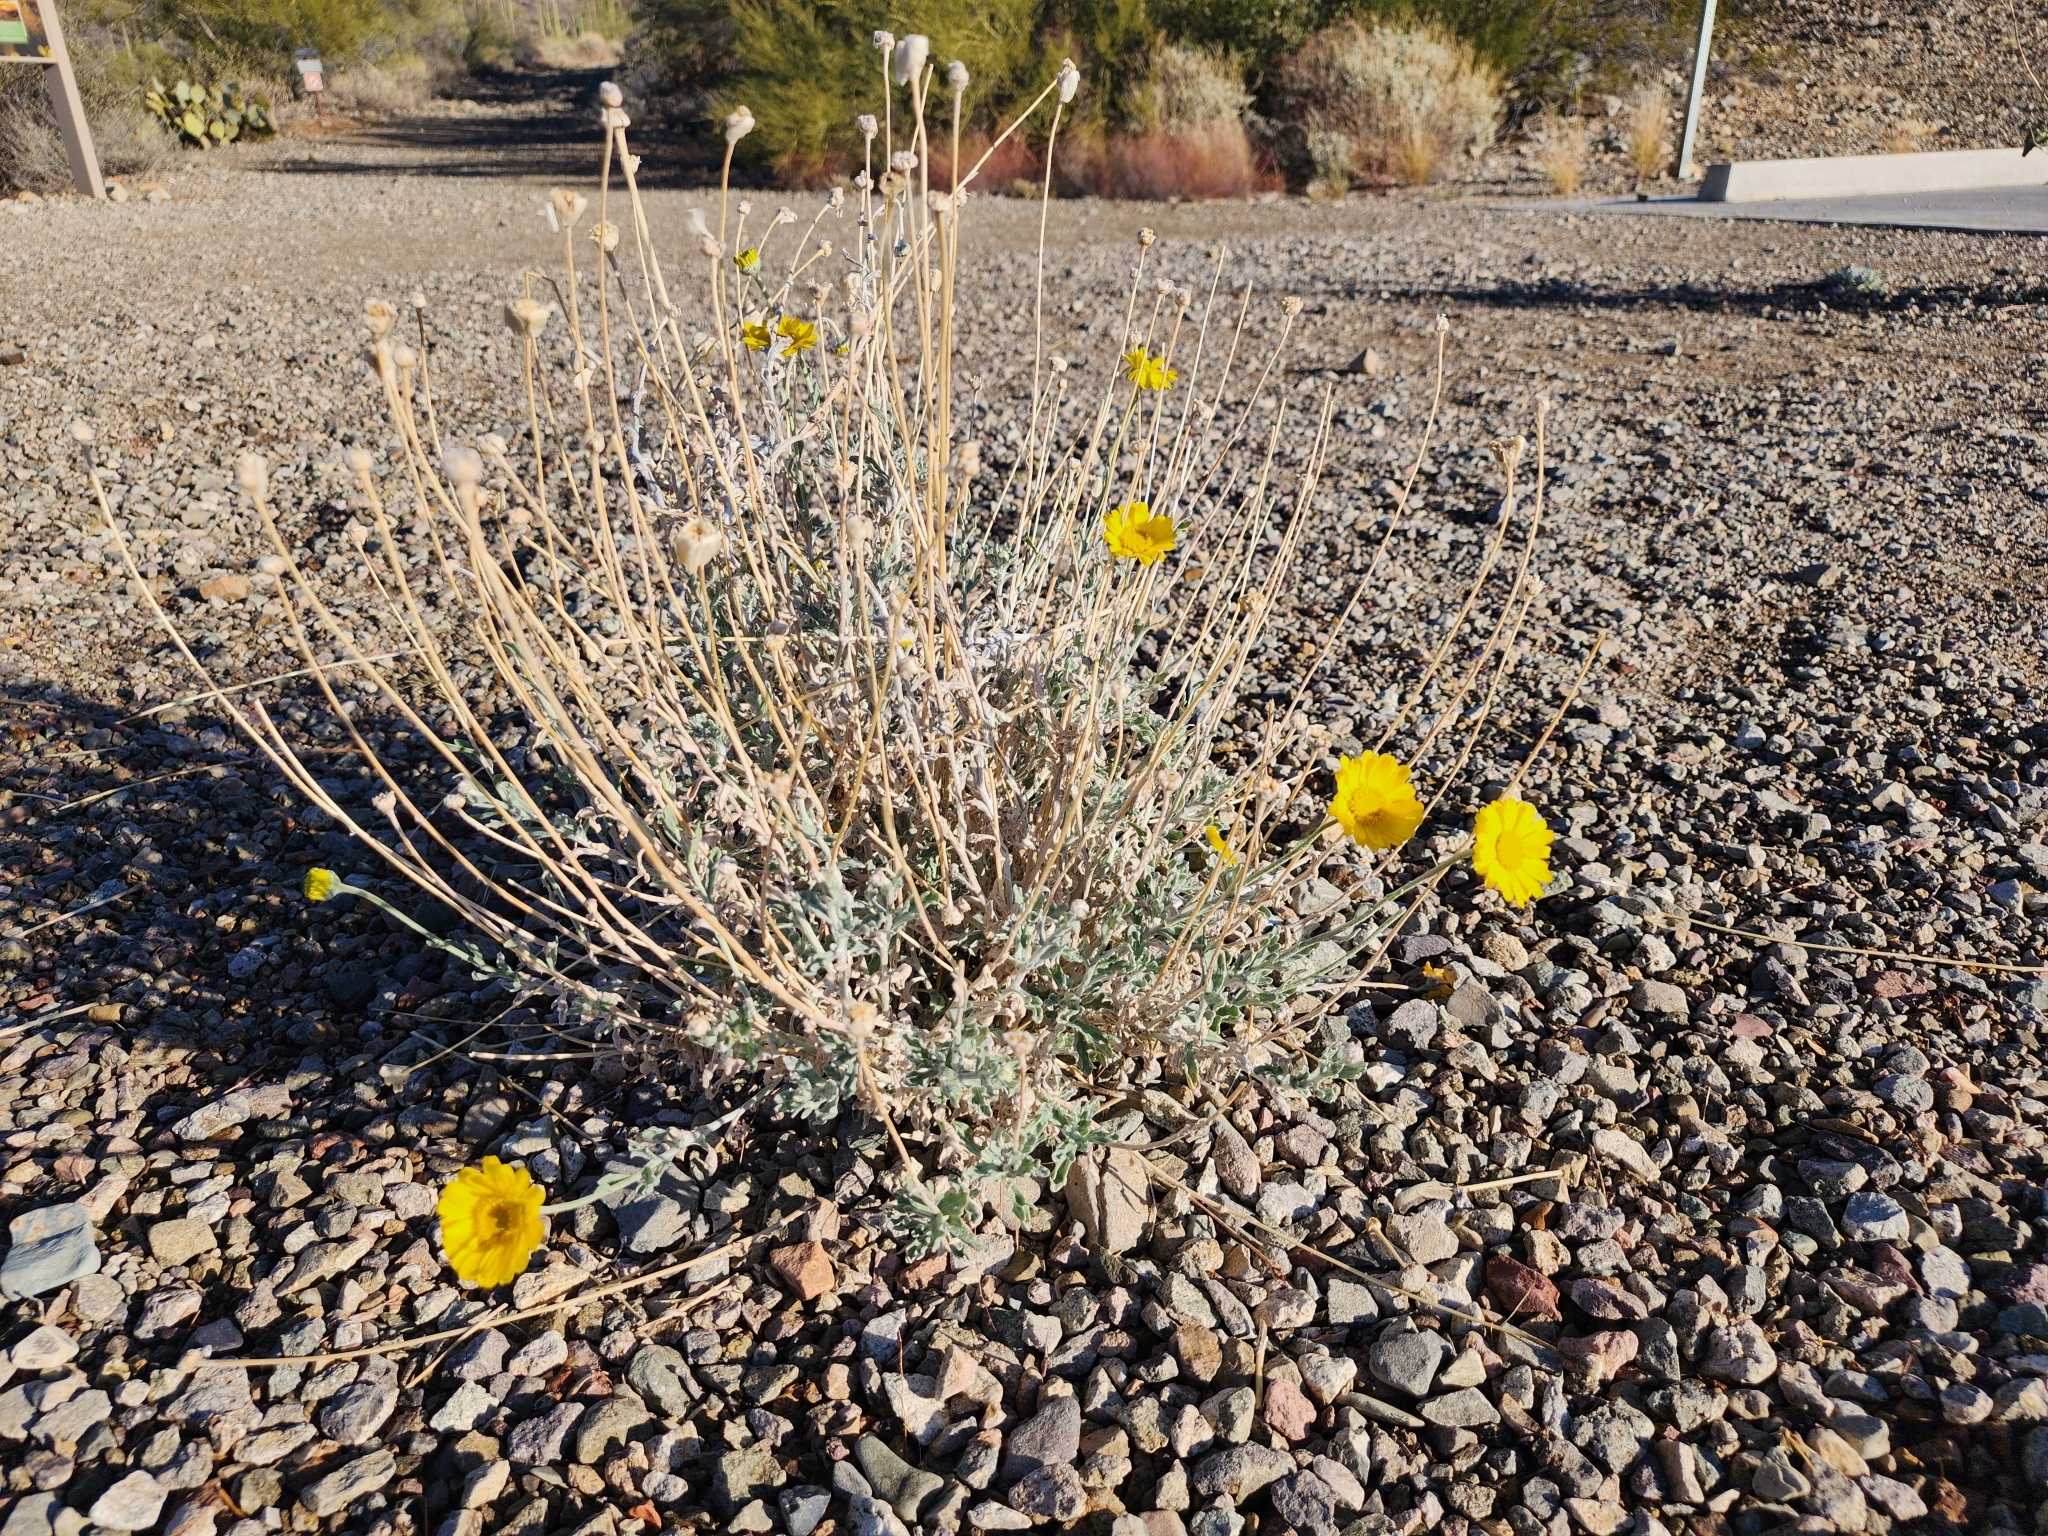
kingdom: Plantae
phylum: Tracheophyta
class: Magnoliopsida
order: Asterales
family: Asteraceae
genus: Baileya
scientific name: Baileya multiradiata
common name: Desert-marigold
